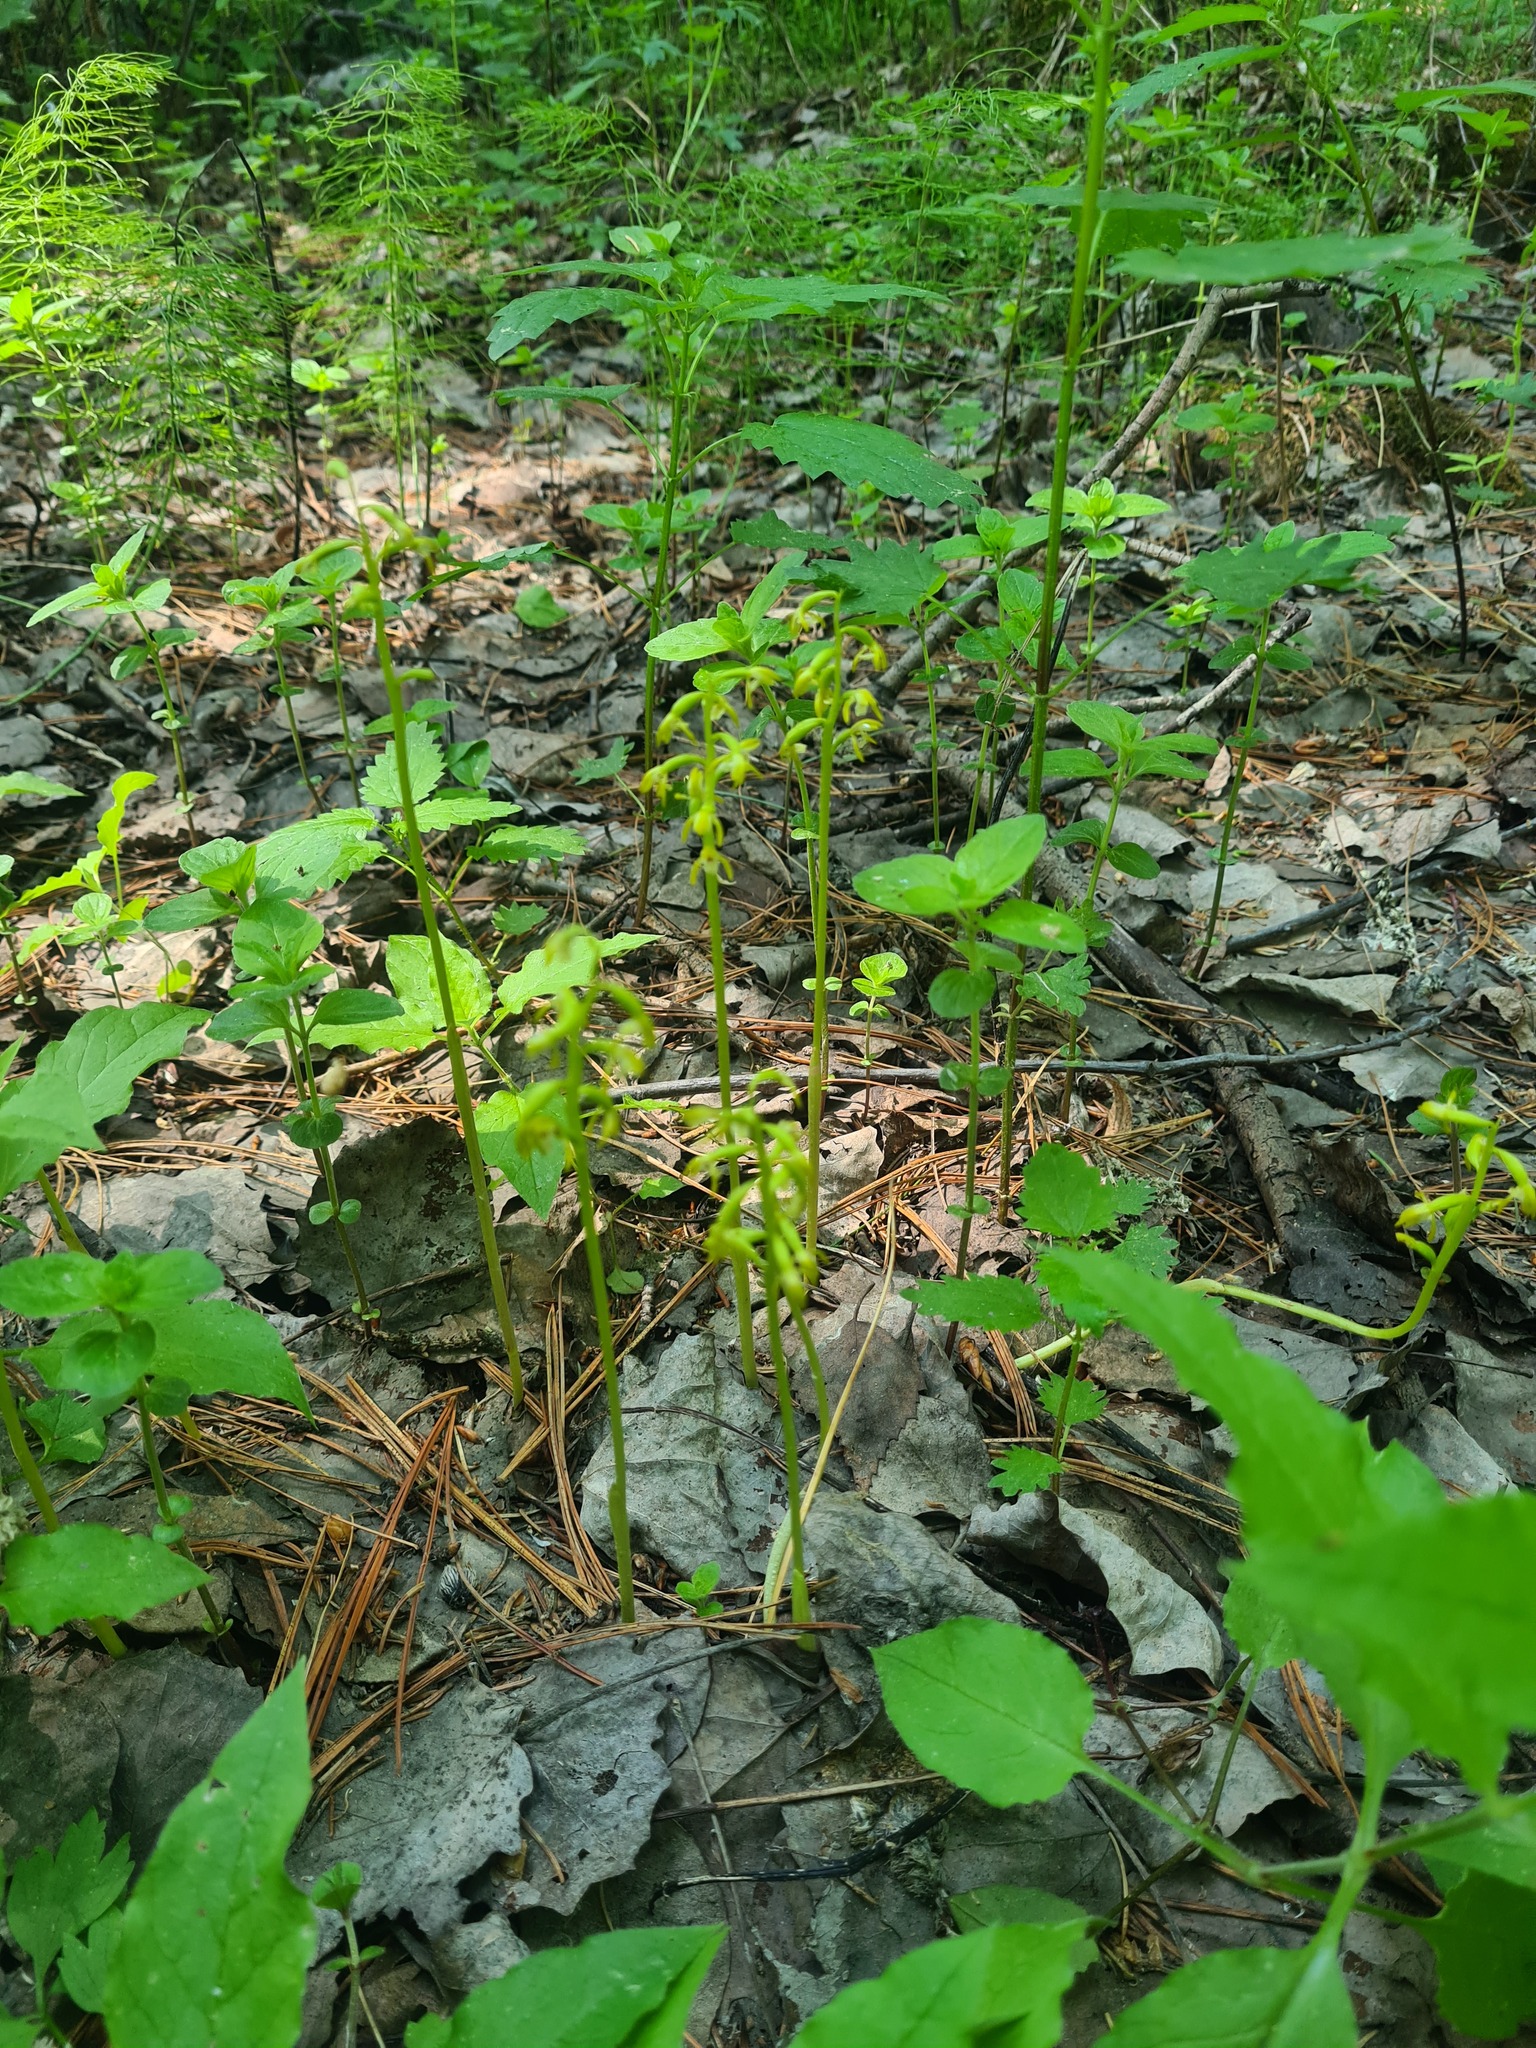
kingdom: Plantae
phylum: Tracheophyta
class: Liliopsida
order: Asparagales
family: Orchidaceae
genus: Corallorhiza
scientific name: Corallorhiza trifida
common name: Yellow coralroot
